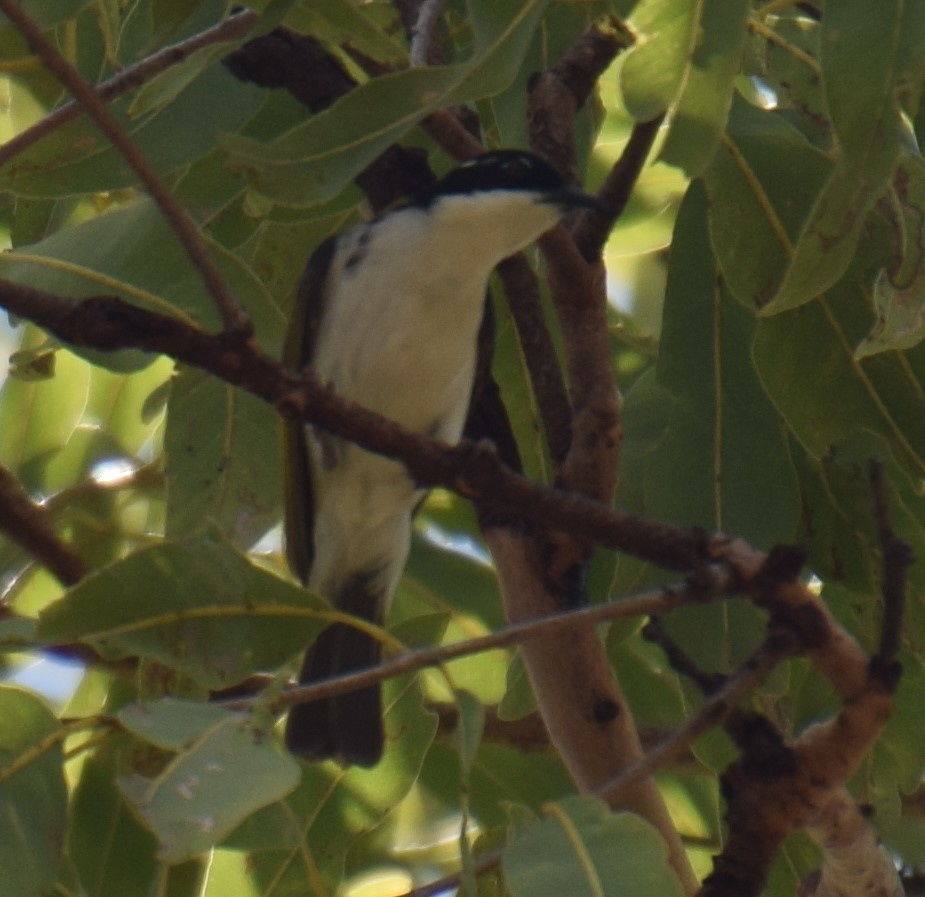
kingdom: Animalia
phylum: Chordata
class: Aves
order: Passeriformes
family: Meliphagidae
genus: Melithreptus
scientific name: Melithreptus albogularis
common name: White-throated honeyeater
